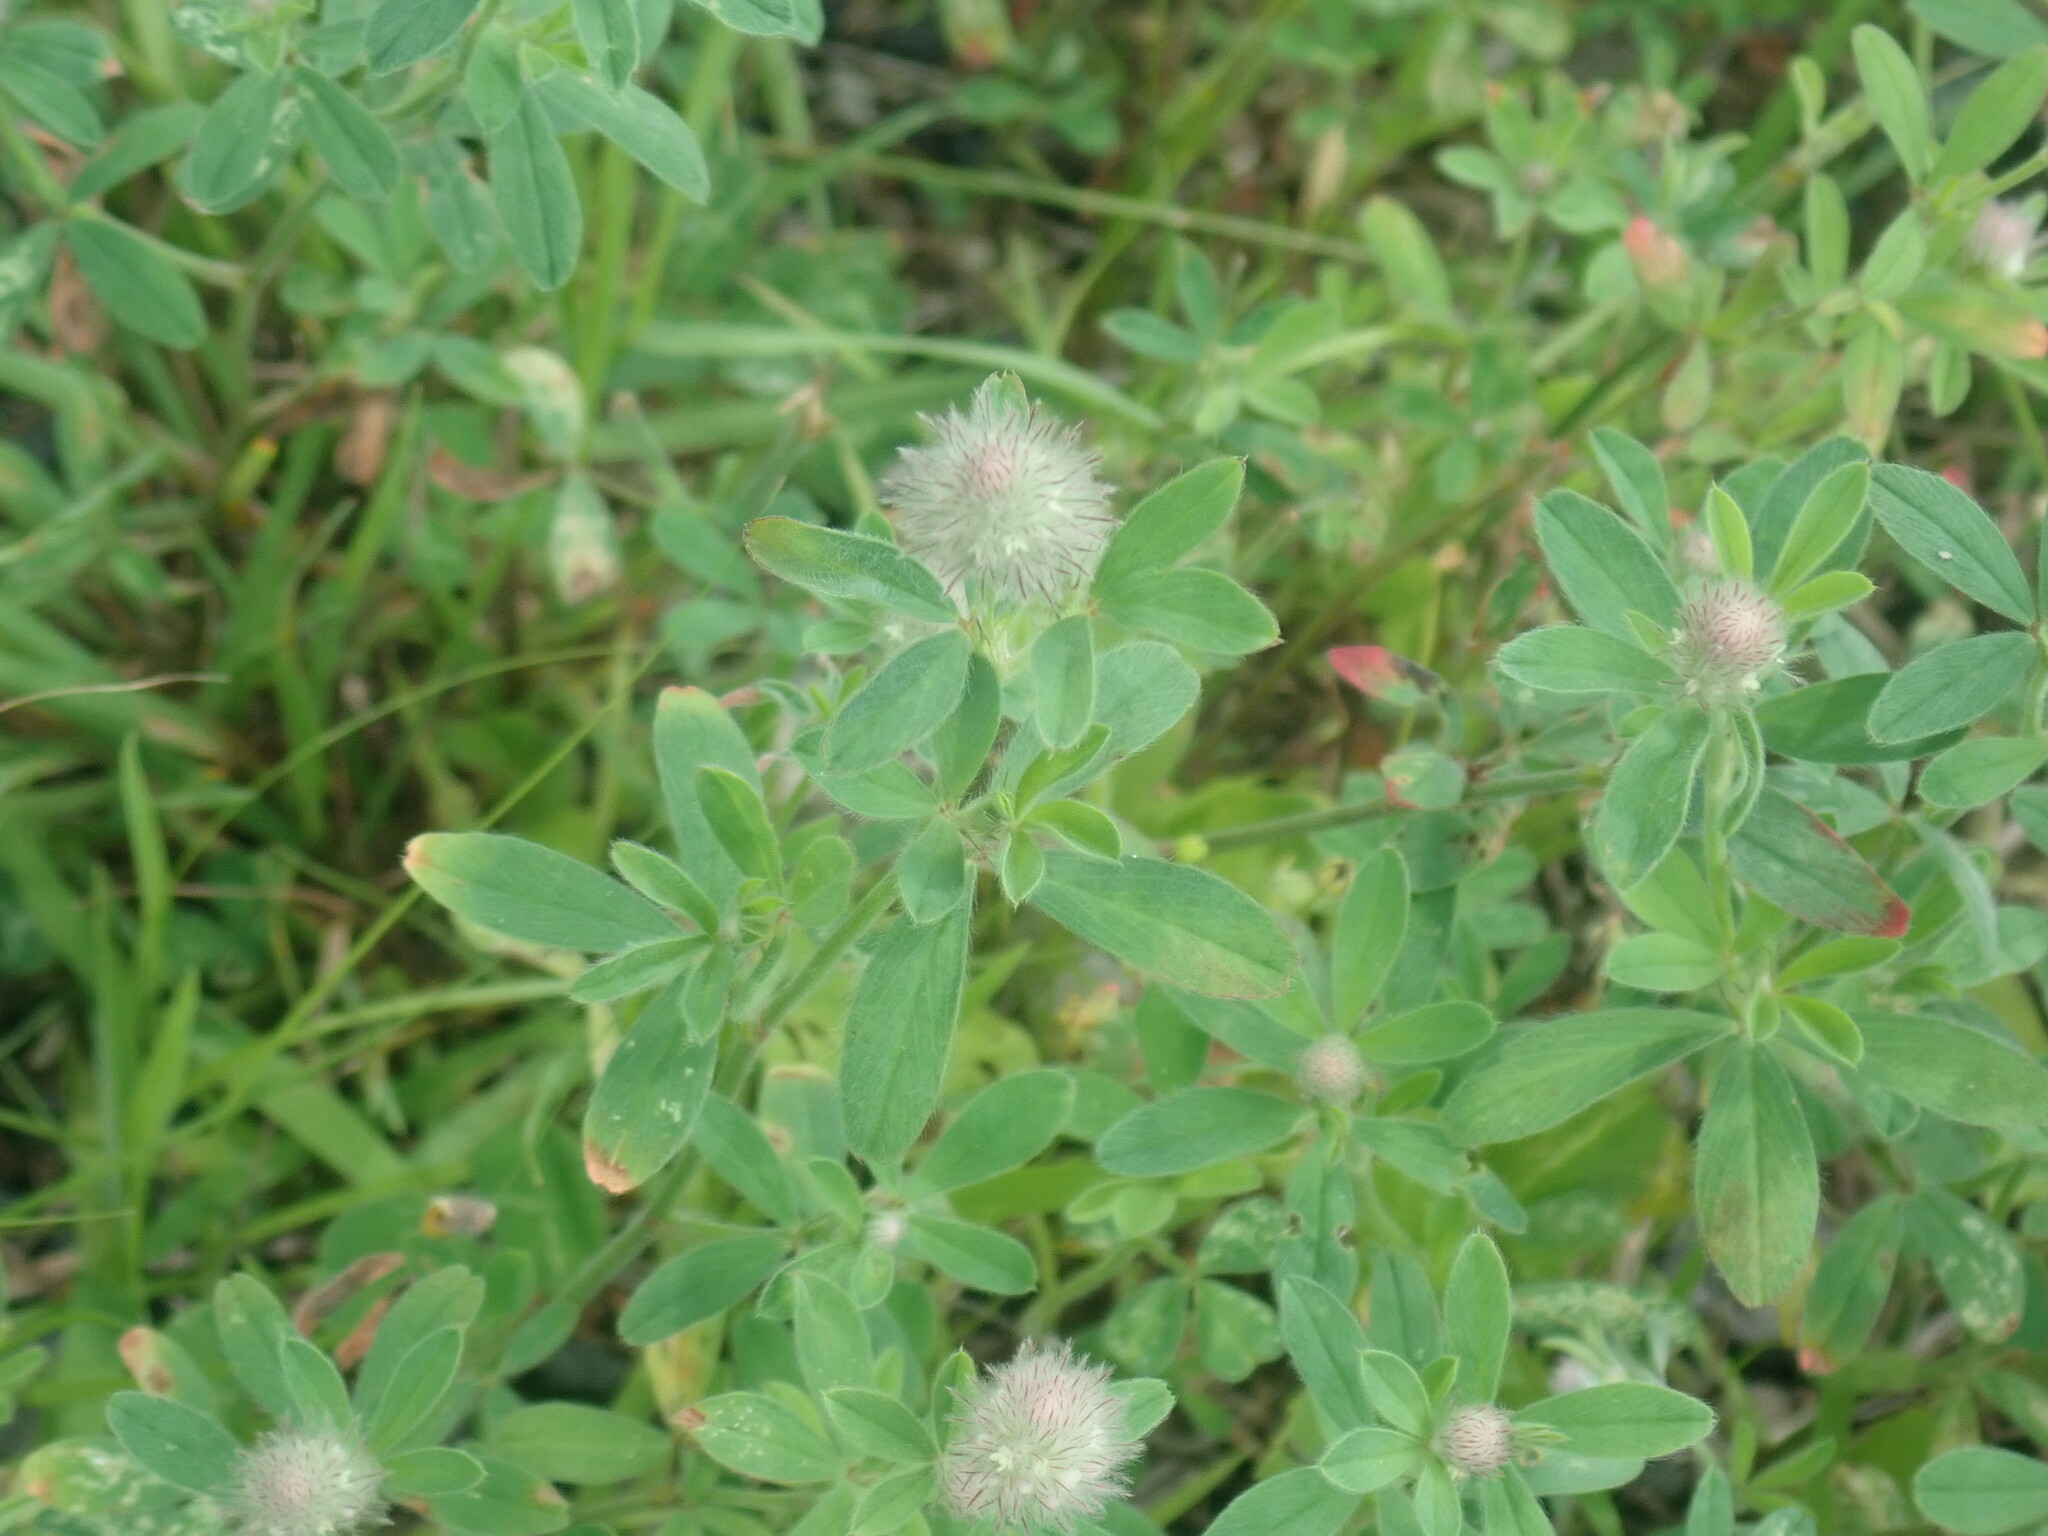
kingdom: Plantae
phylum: Tracheophyta
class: Magnoliopsida
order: Fabales
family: Fabaceae
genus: Trifolium
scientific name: Trifolium arvense
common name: Hare's-foot clover
